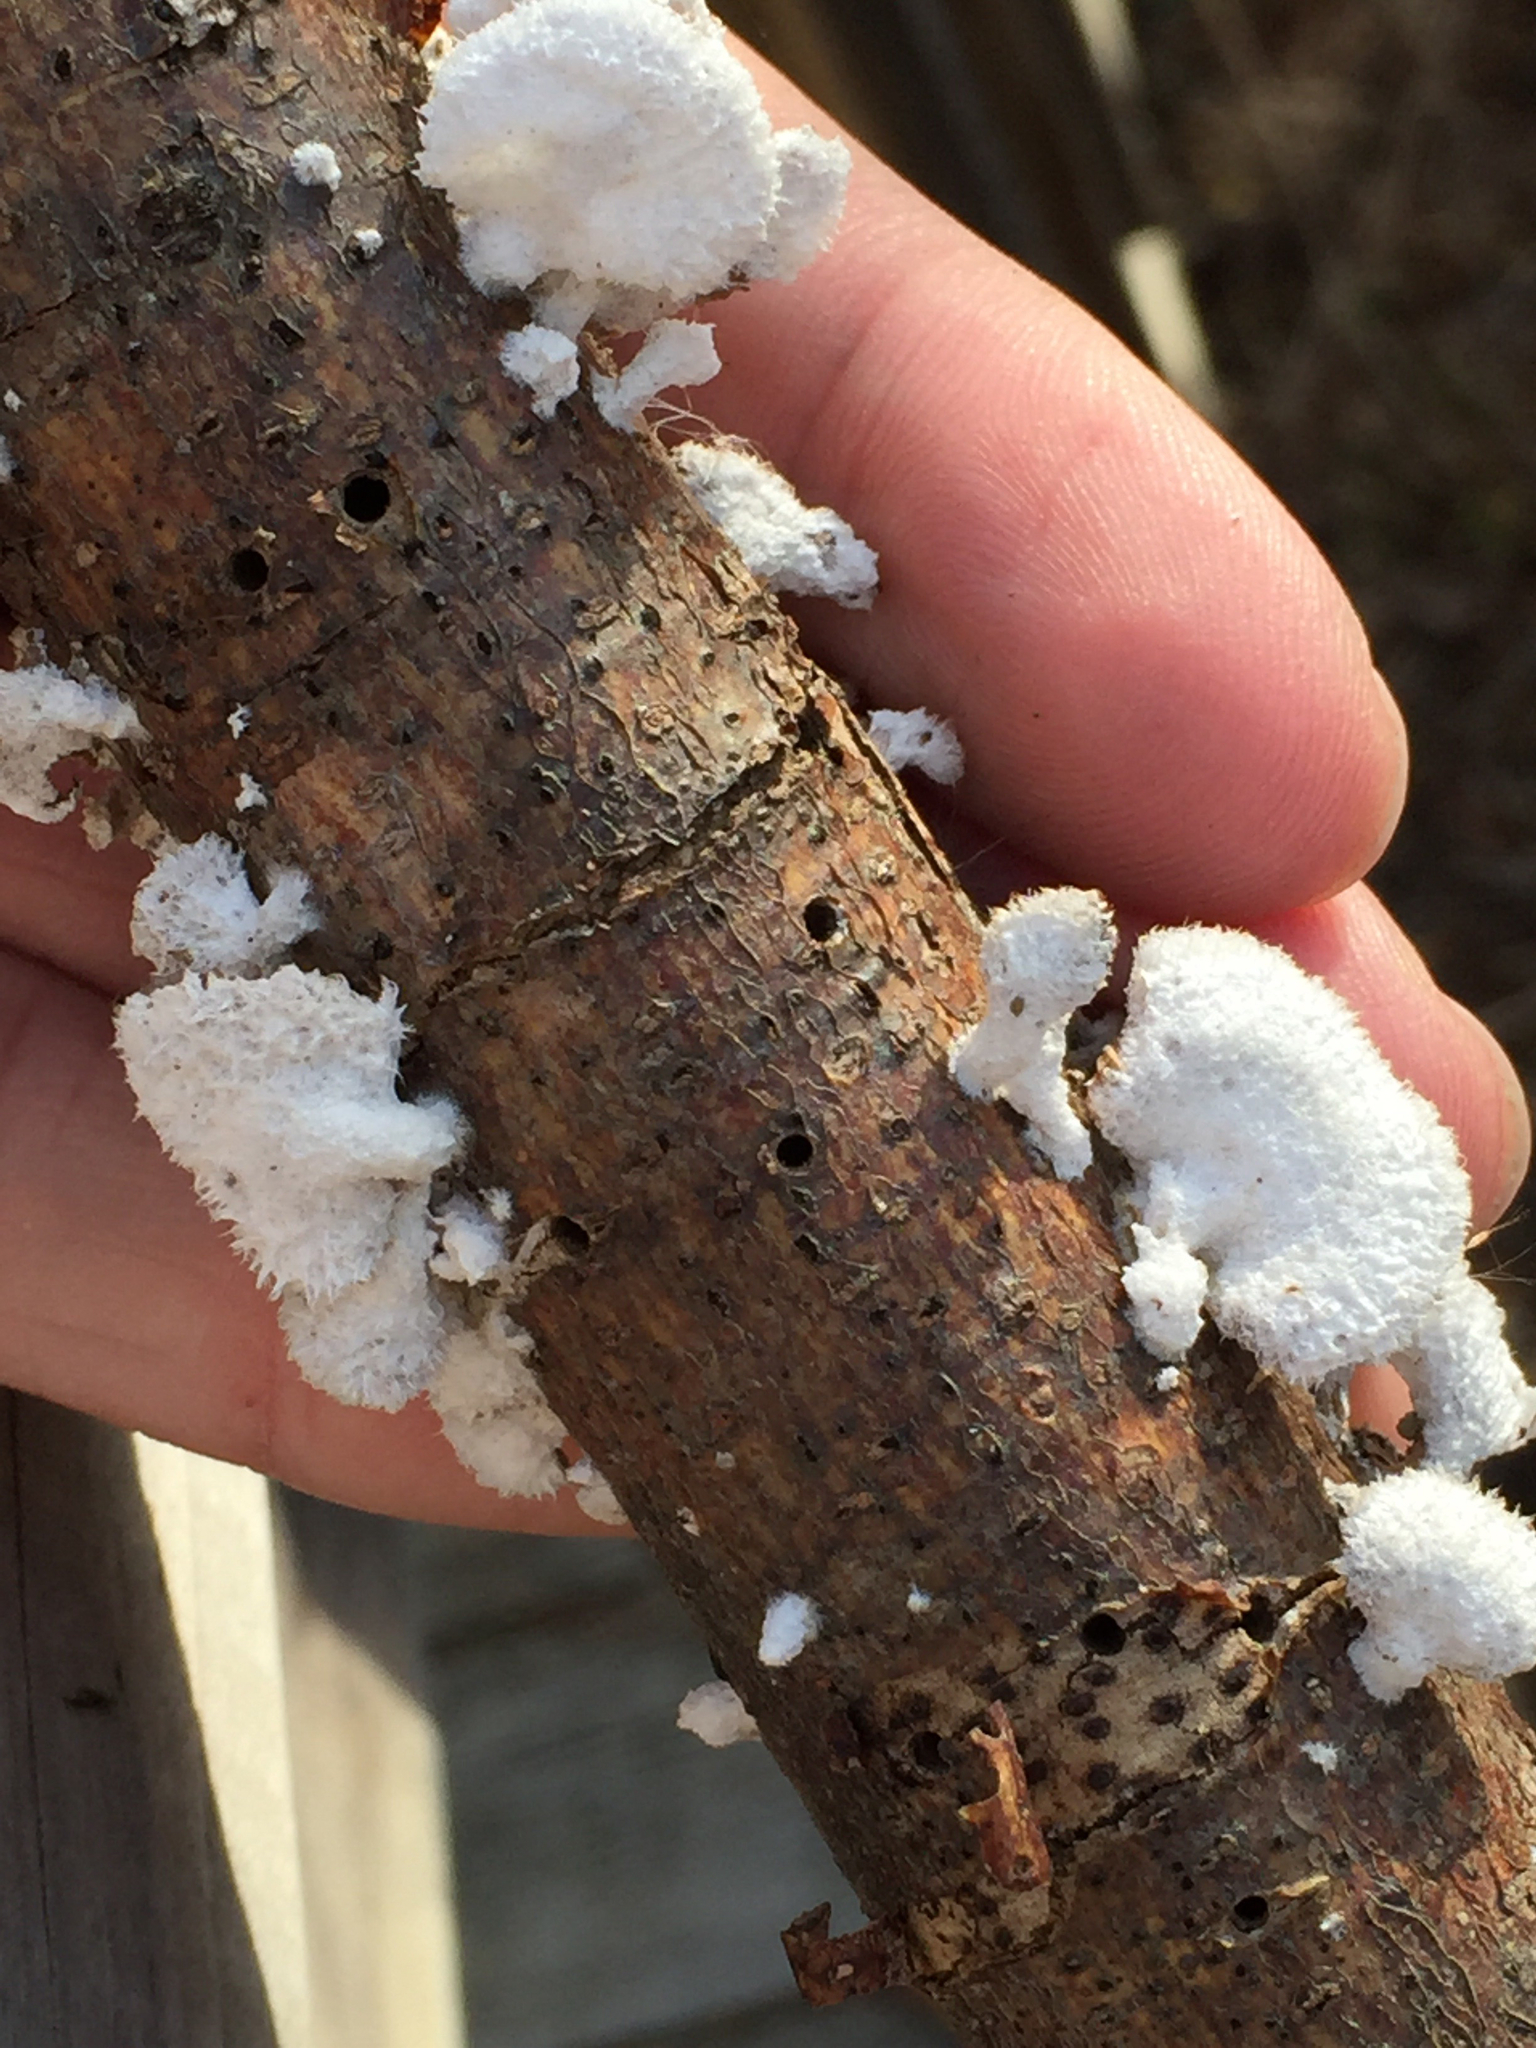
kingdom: Fungi
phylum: Basidiomycota
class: Agaricomycetes
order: Agaricales
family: Schizophyllaceae
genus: Schizophyllum
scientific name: Schizophyllum commune
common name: Common porecrust
